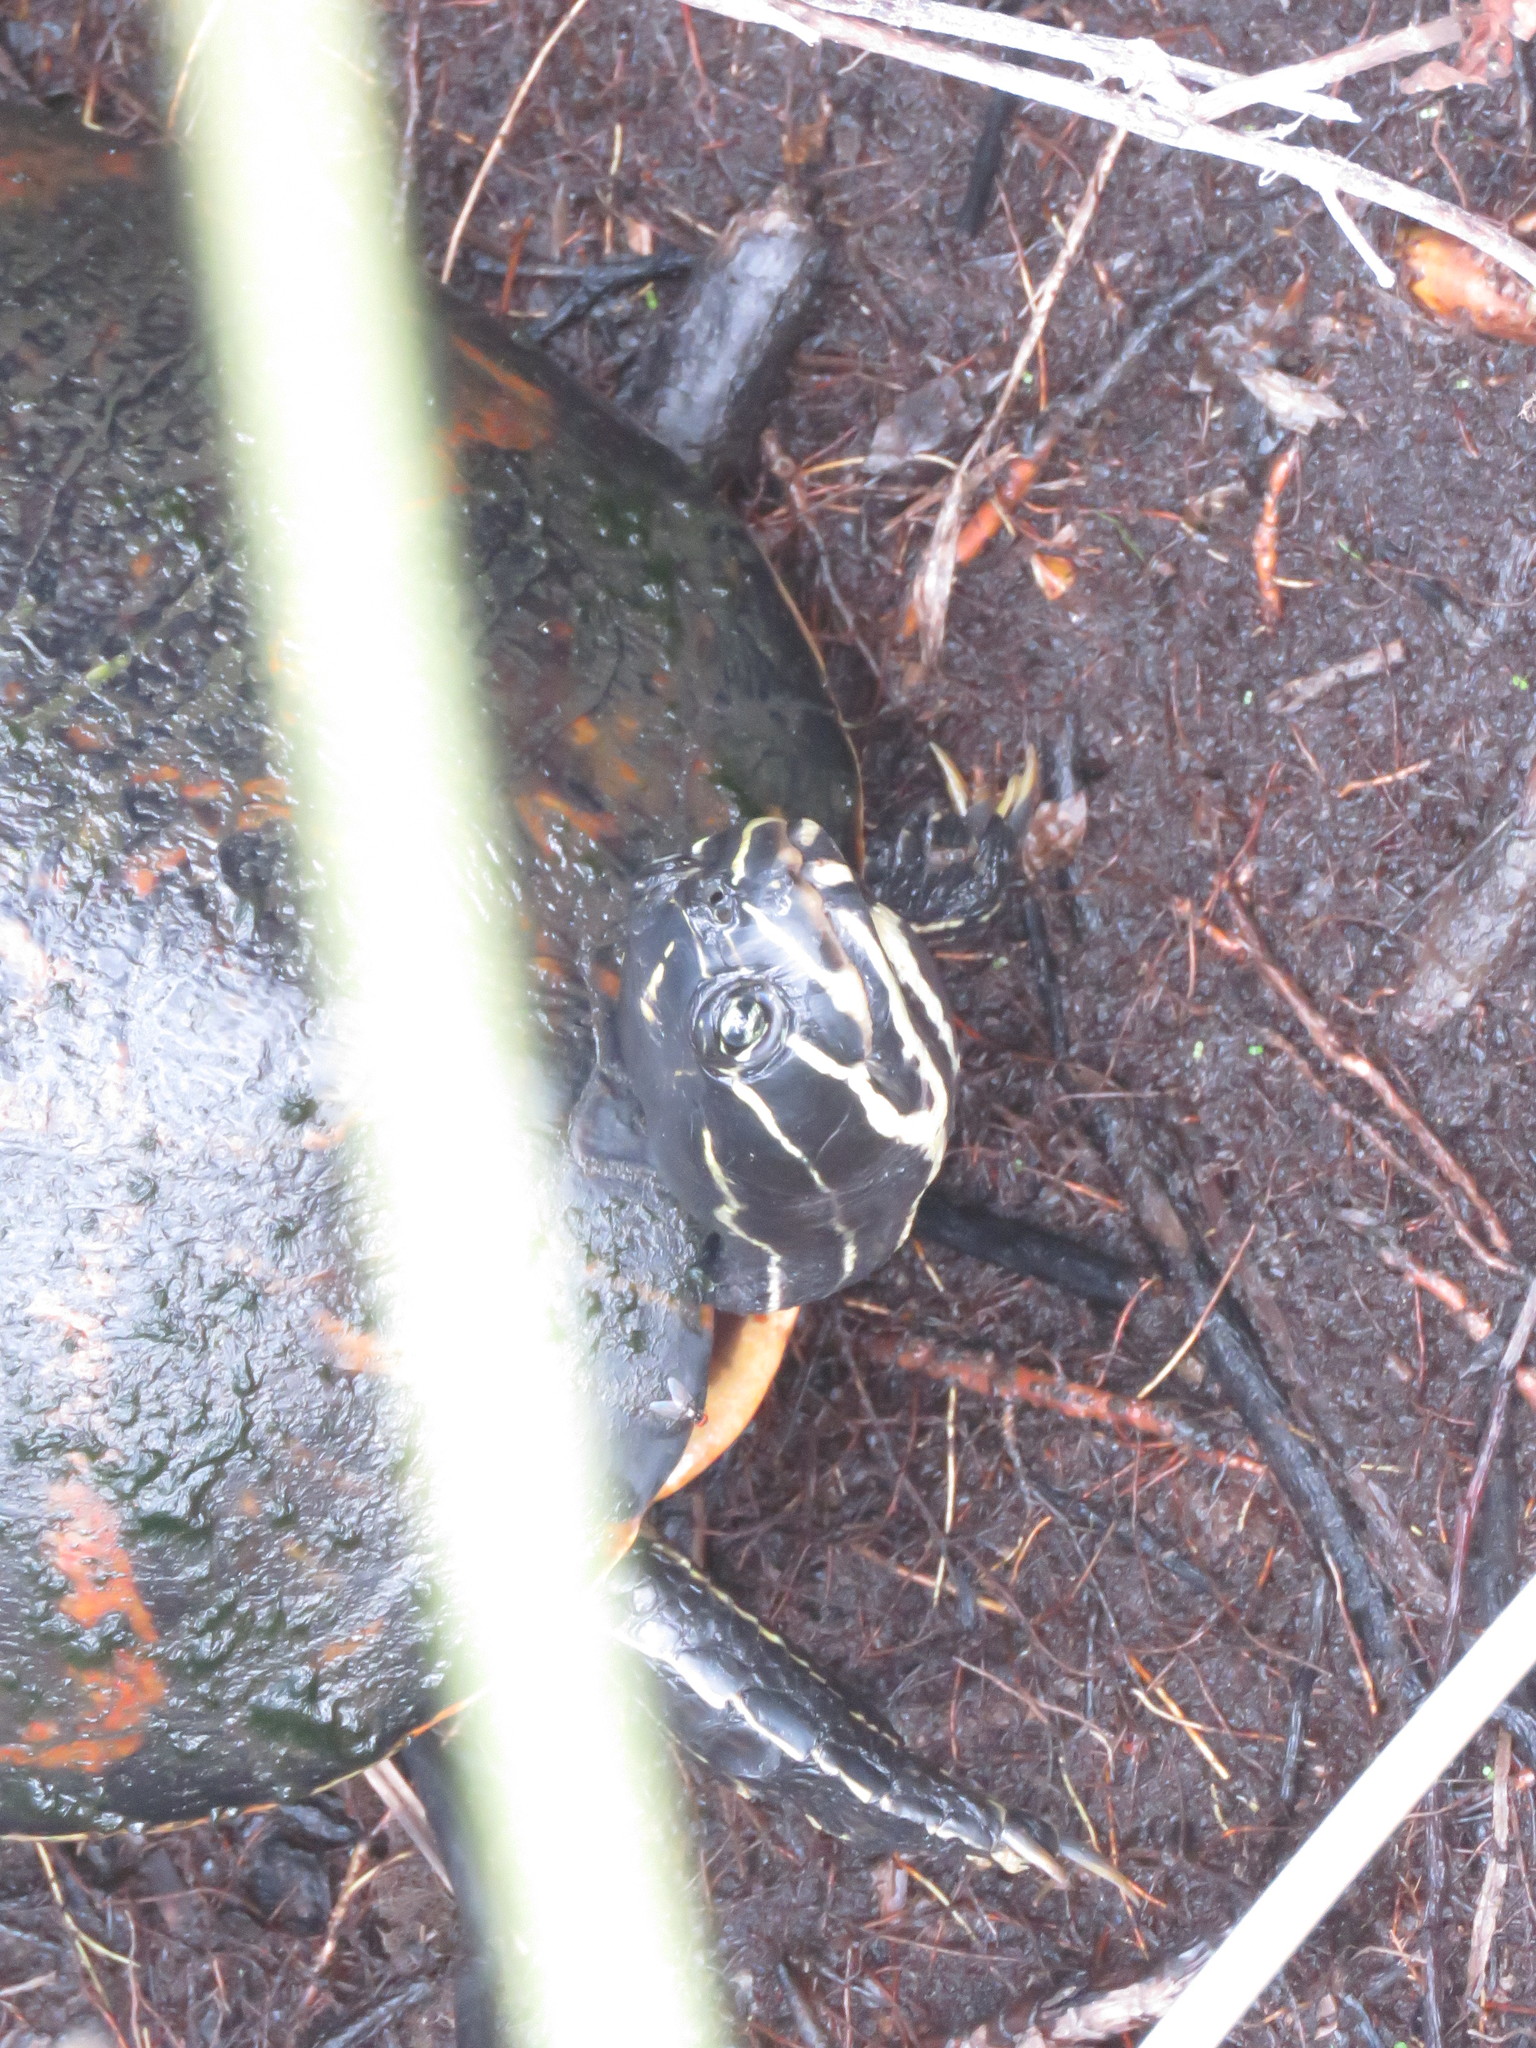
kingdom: Animalia
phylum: Chordata
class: Testudines
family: Emydidae
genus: Pseudemys
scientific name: Pseudemys nelsoni
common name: Florida red-bellied turtle
